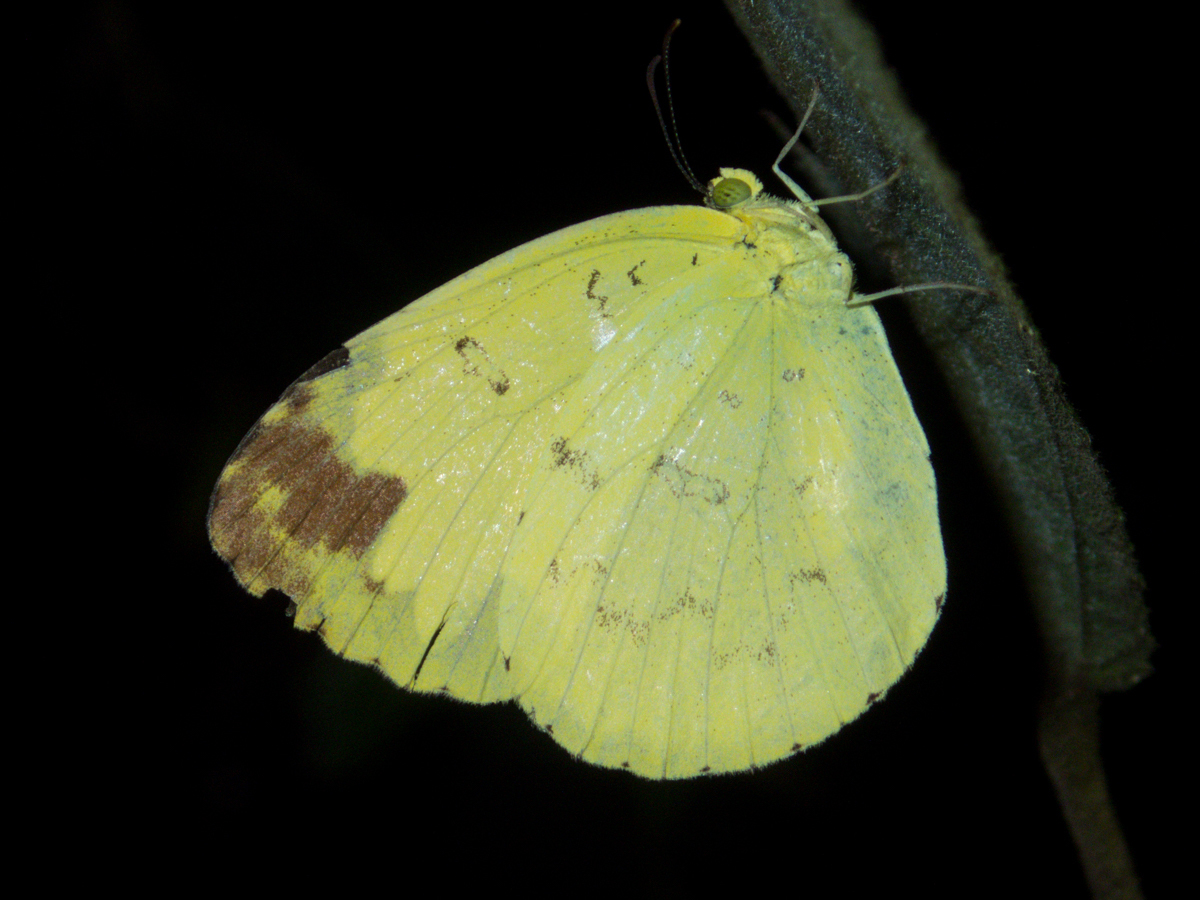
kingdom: Animalia
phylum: Arthropoda
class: Insecta
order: Lepidoptera
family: Pieridae
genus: Eurema
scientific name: Eurema blanda
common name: Three-spot grass yellow
